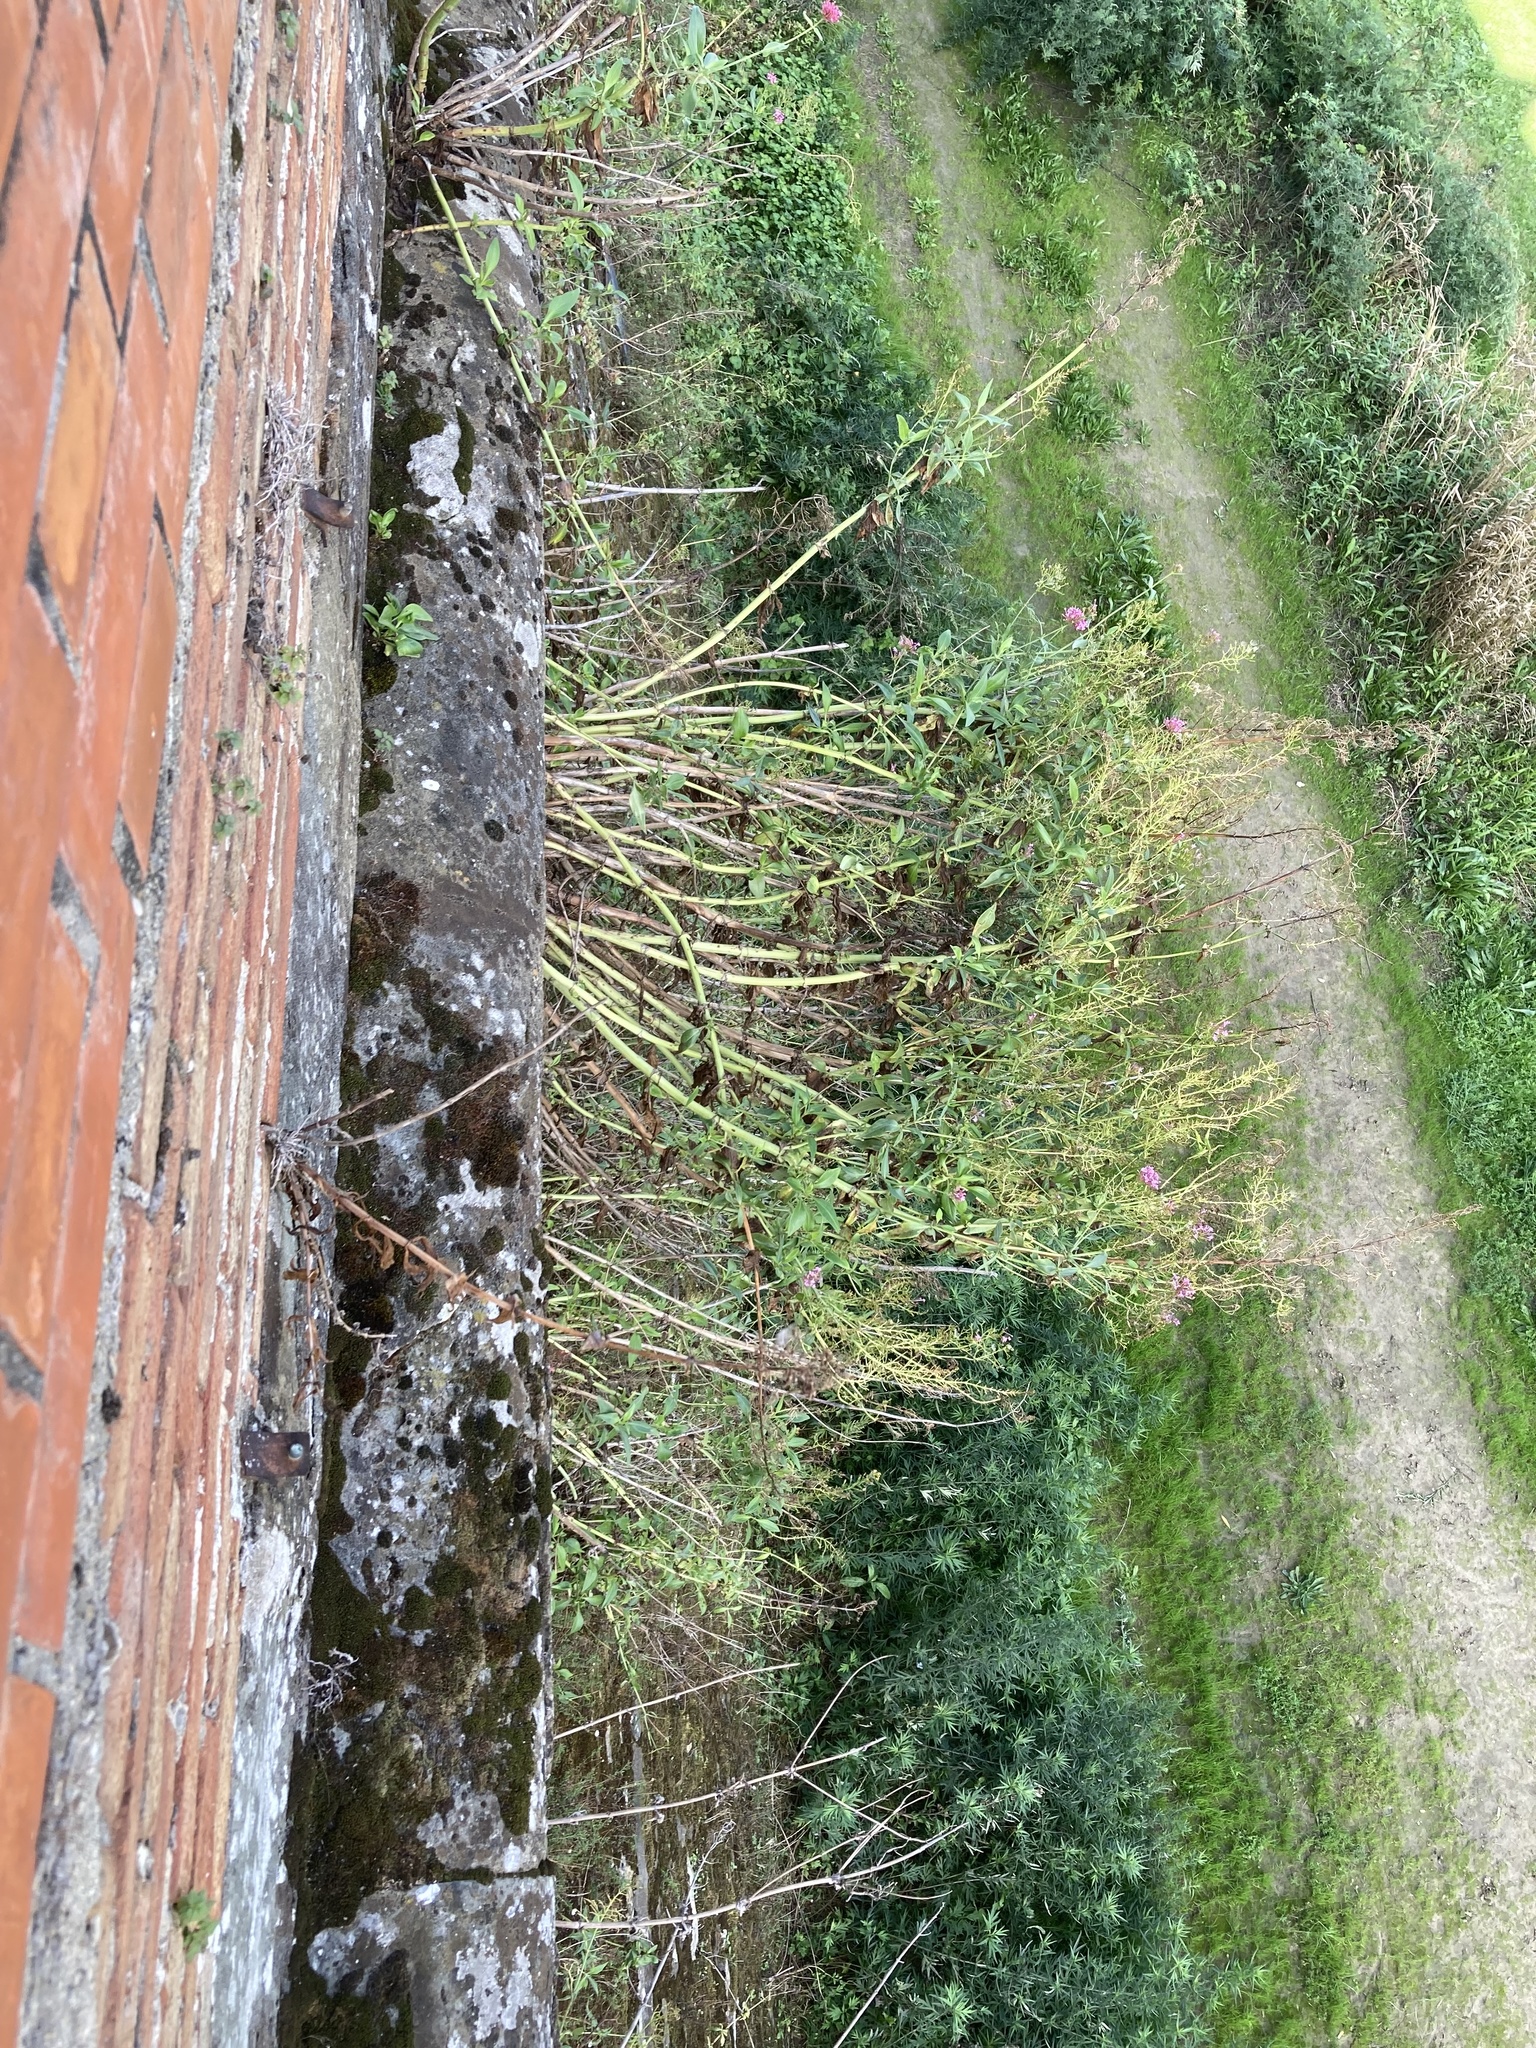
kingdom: Plantae
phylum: Tracheophyta
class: Magnoliopsida
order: Dipsacales
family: Caprifoliaceae
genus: Centranthus
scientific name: Centranthus ruber
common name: Red valerian
